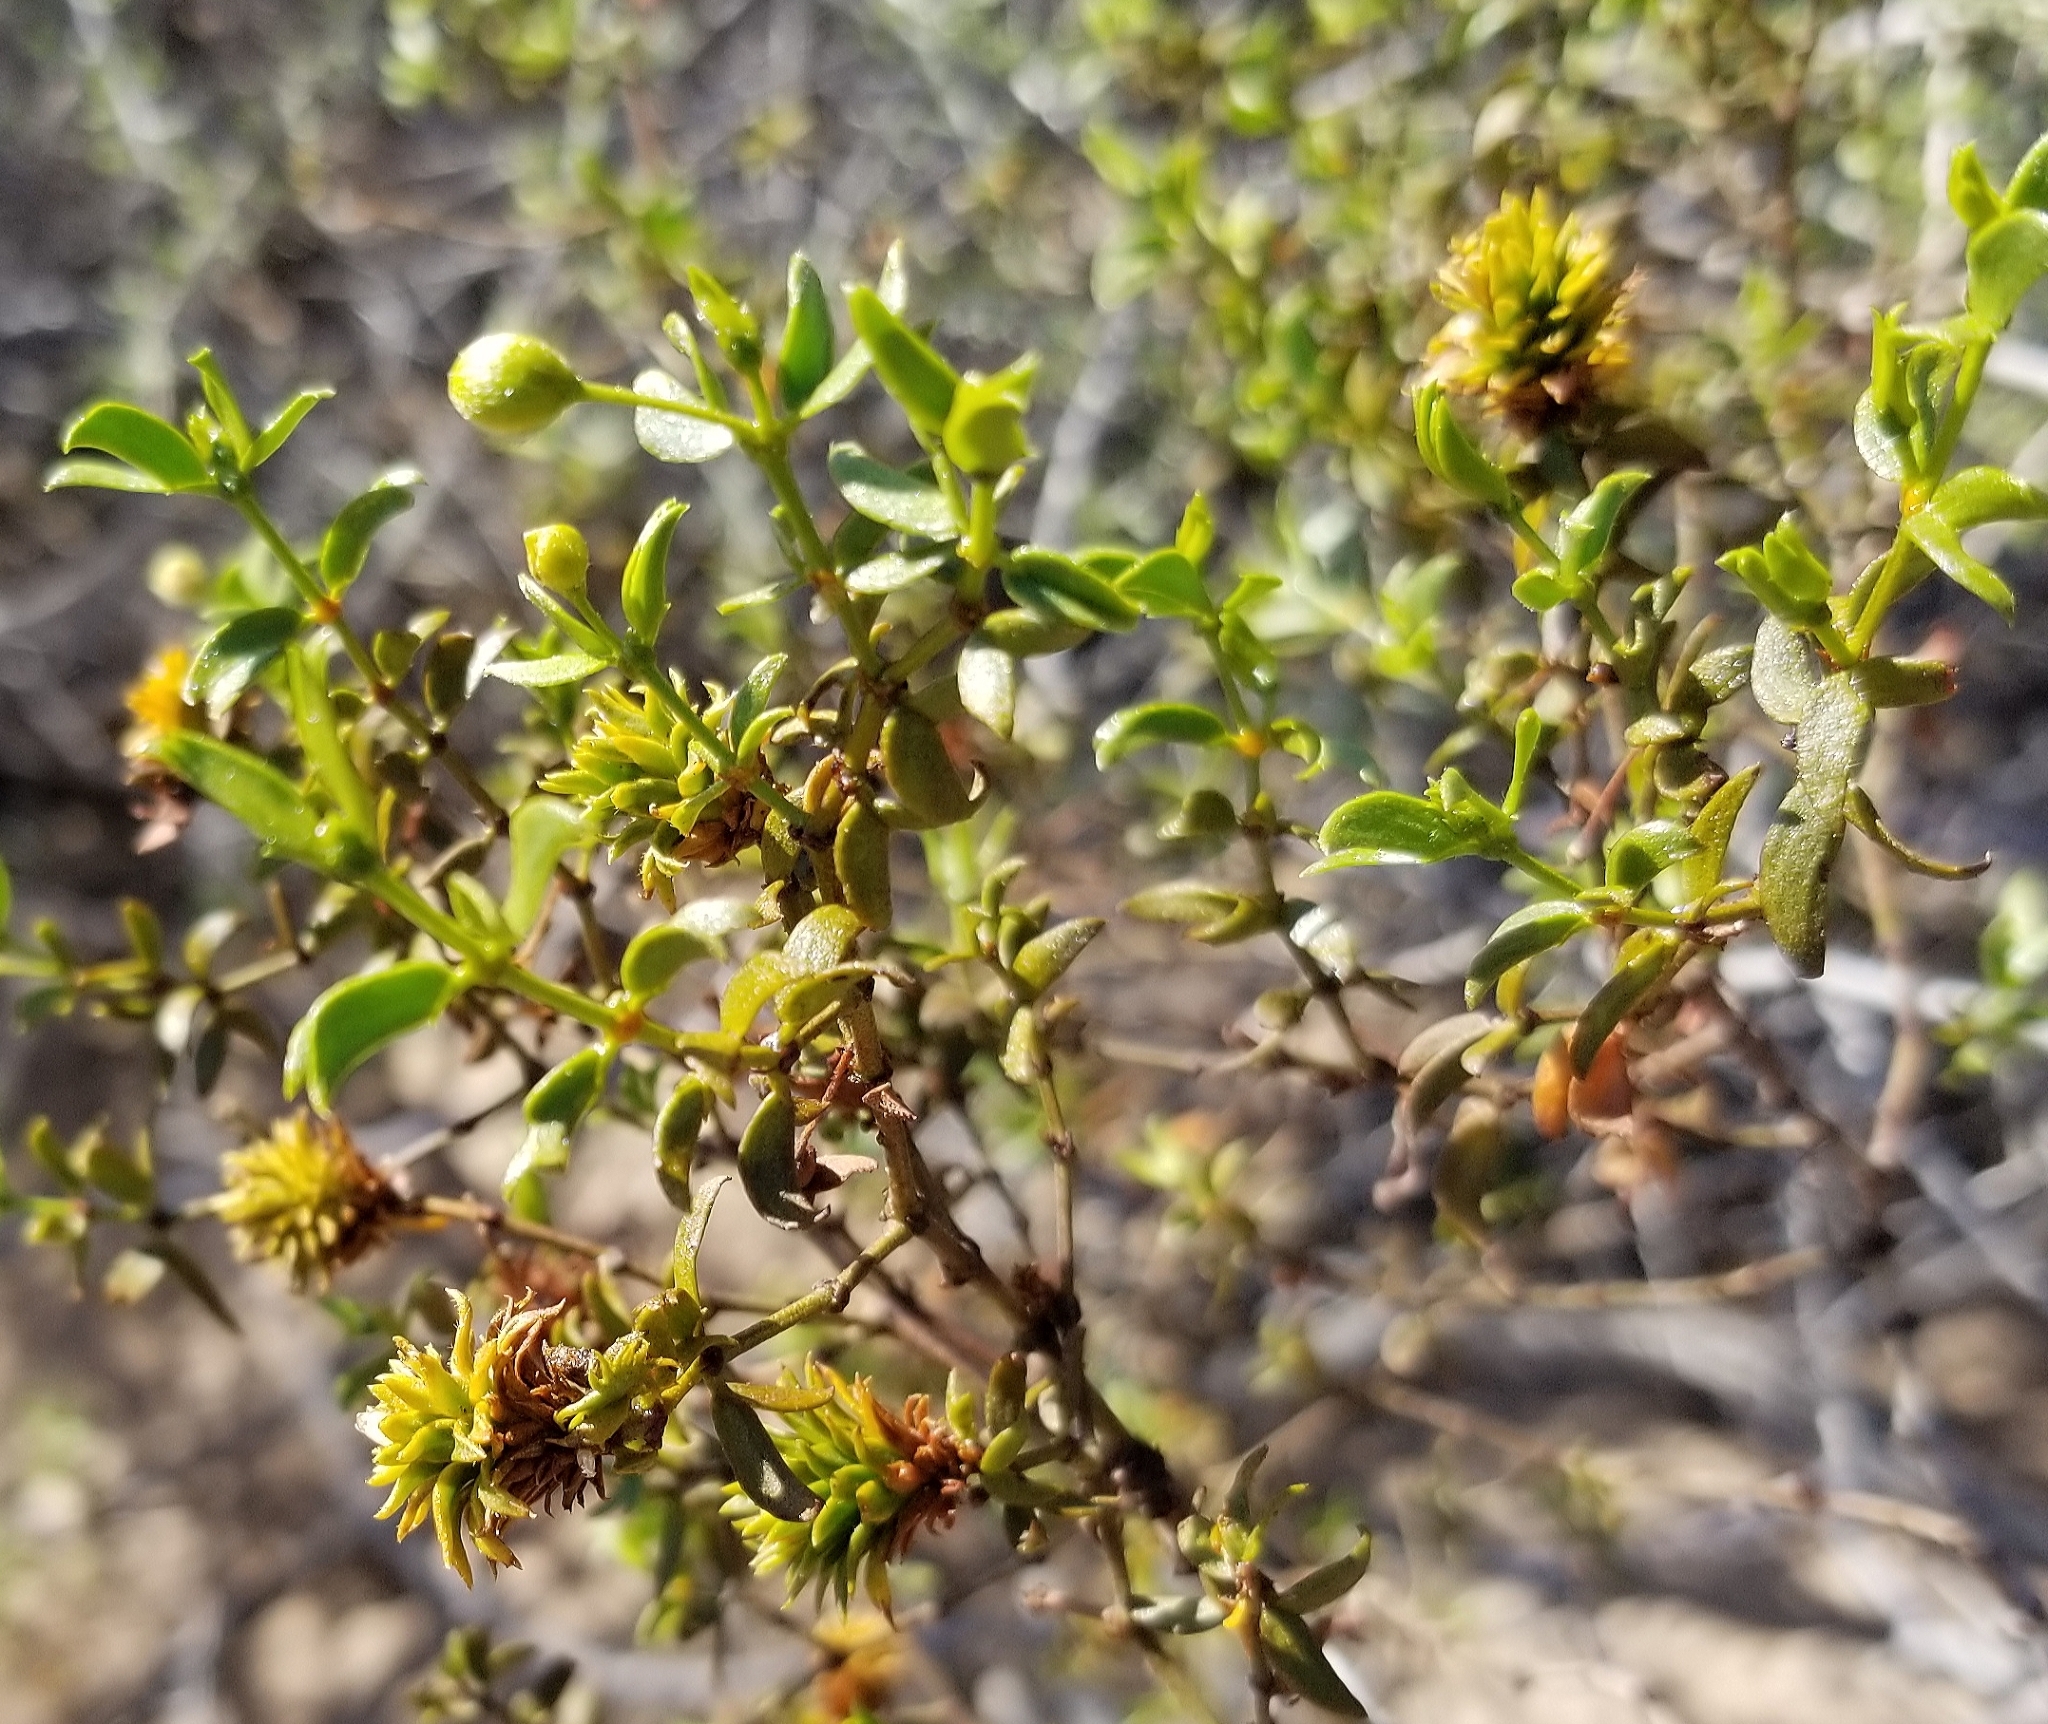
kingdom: Animalia
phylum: Arthropoda
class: Insecta
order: Diptera
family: Cecidomyiidae
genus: Asphondylia
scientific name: Asphondylia rosetta
